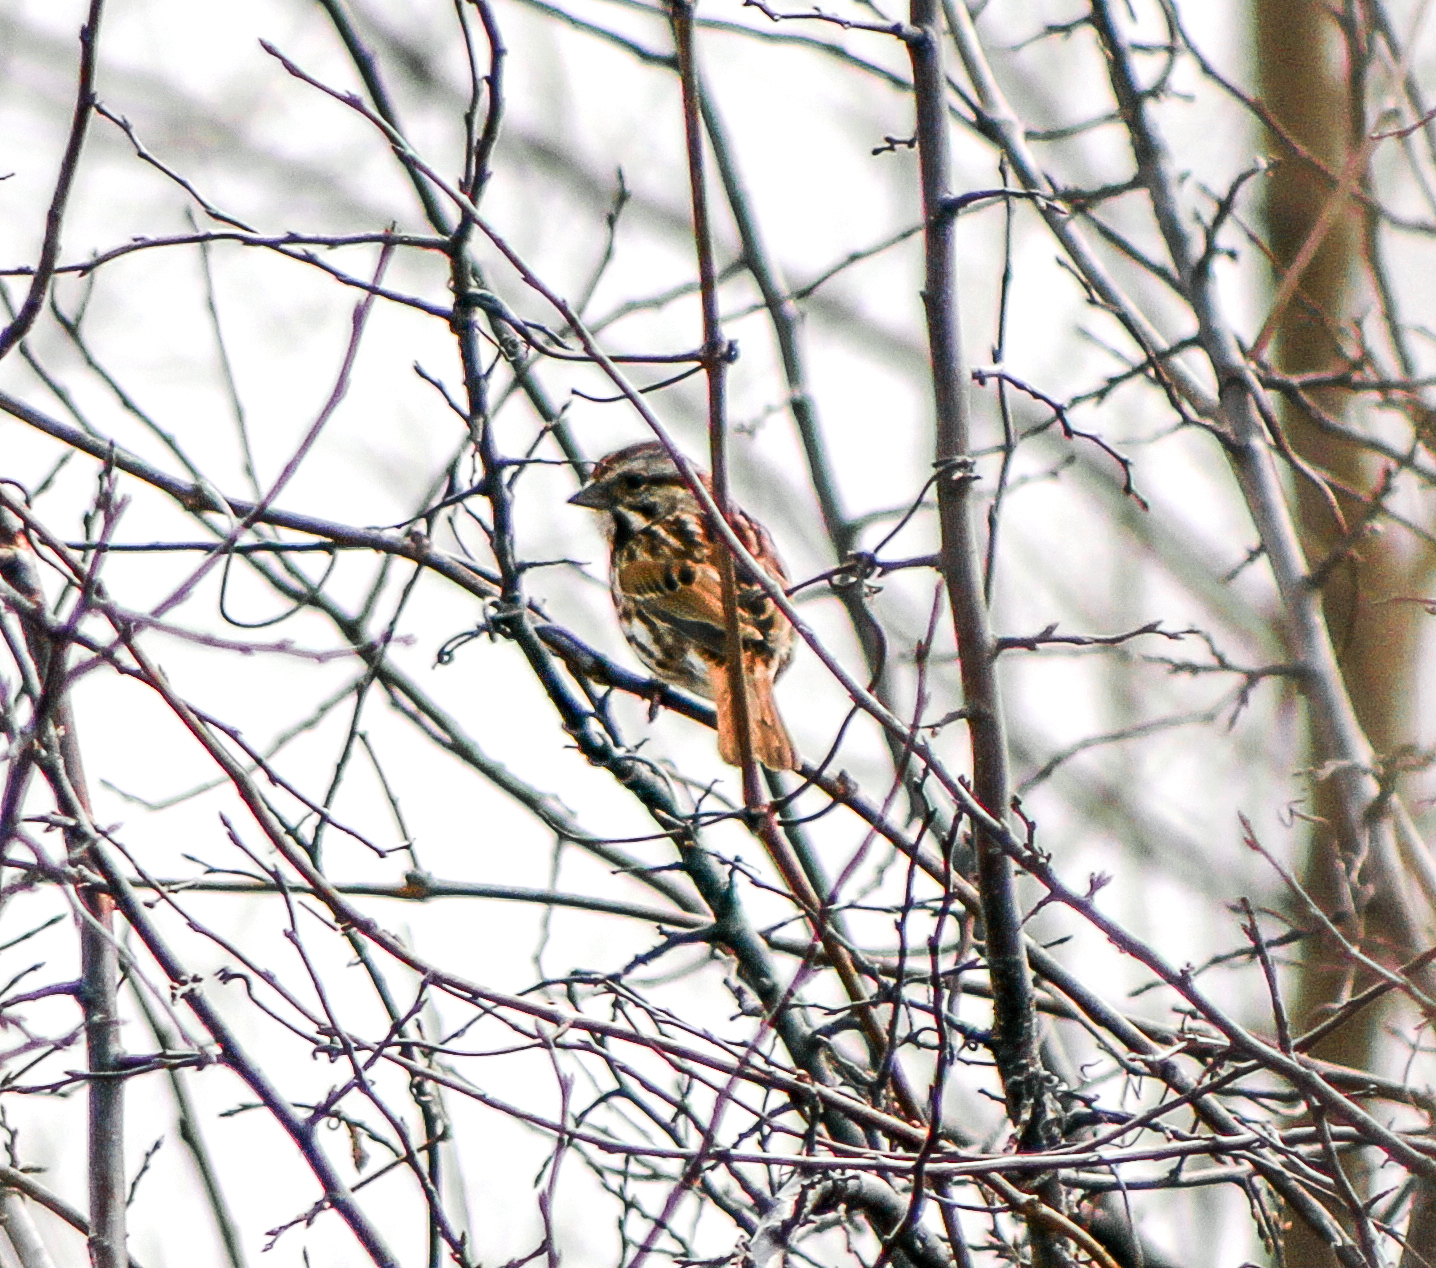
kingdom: Animalia
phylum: Chordata
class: Aves
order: Passeriformes
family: Passerellidae
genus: Melospiza
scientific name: Melospiza melodia
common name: Song sparrow
